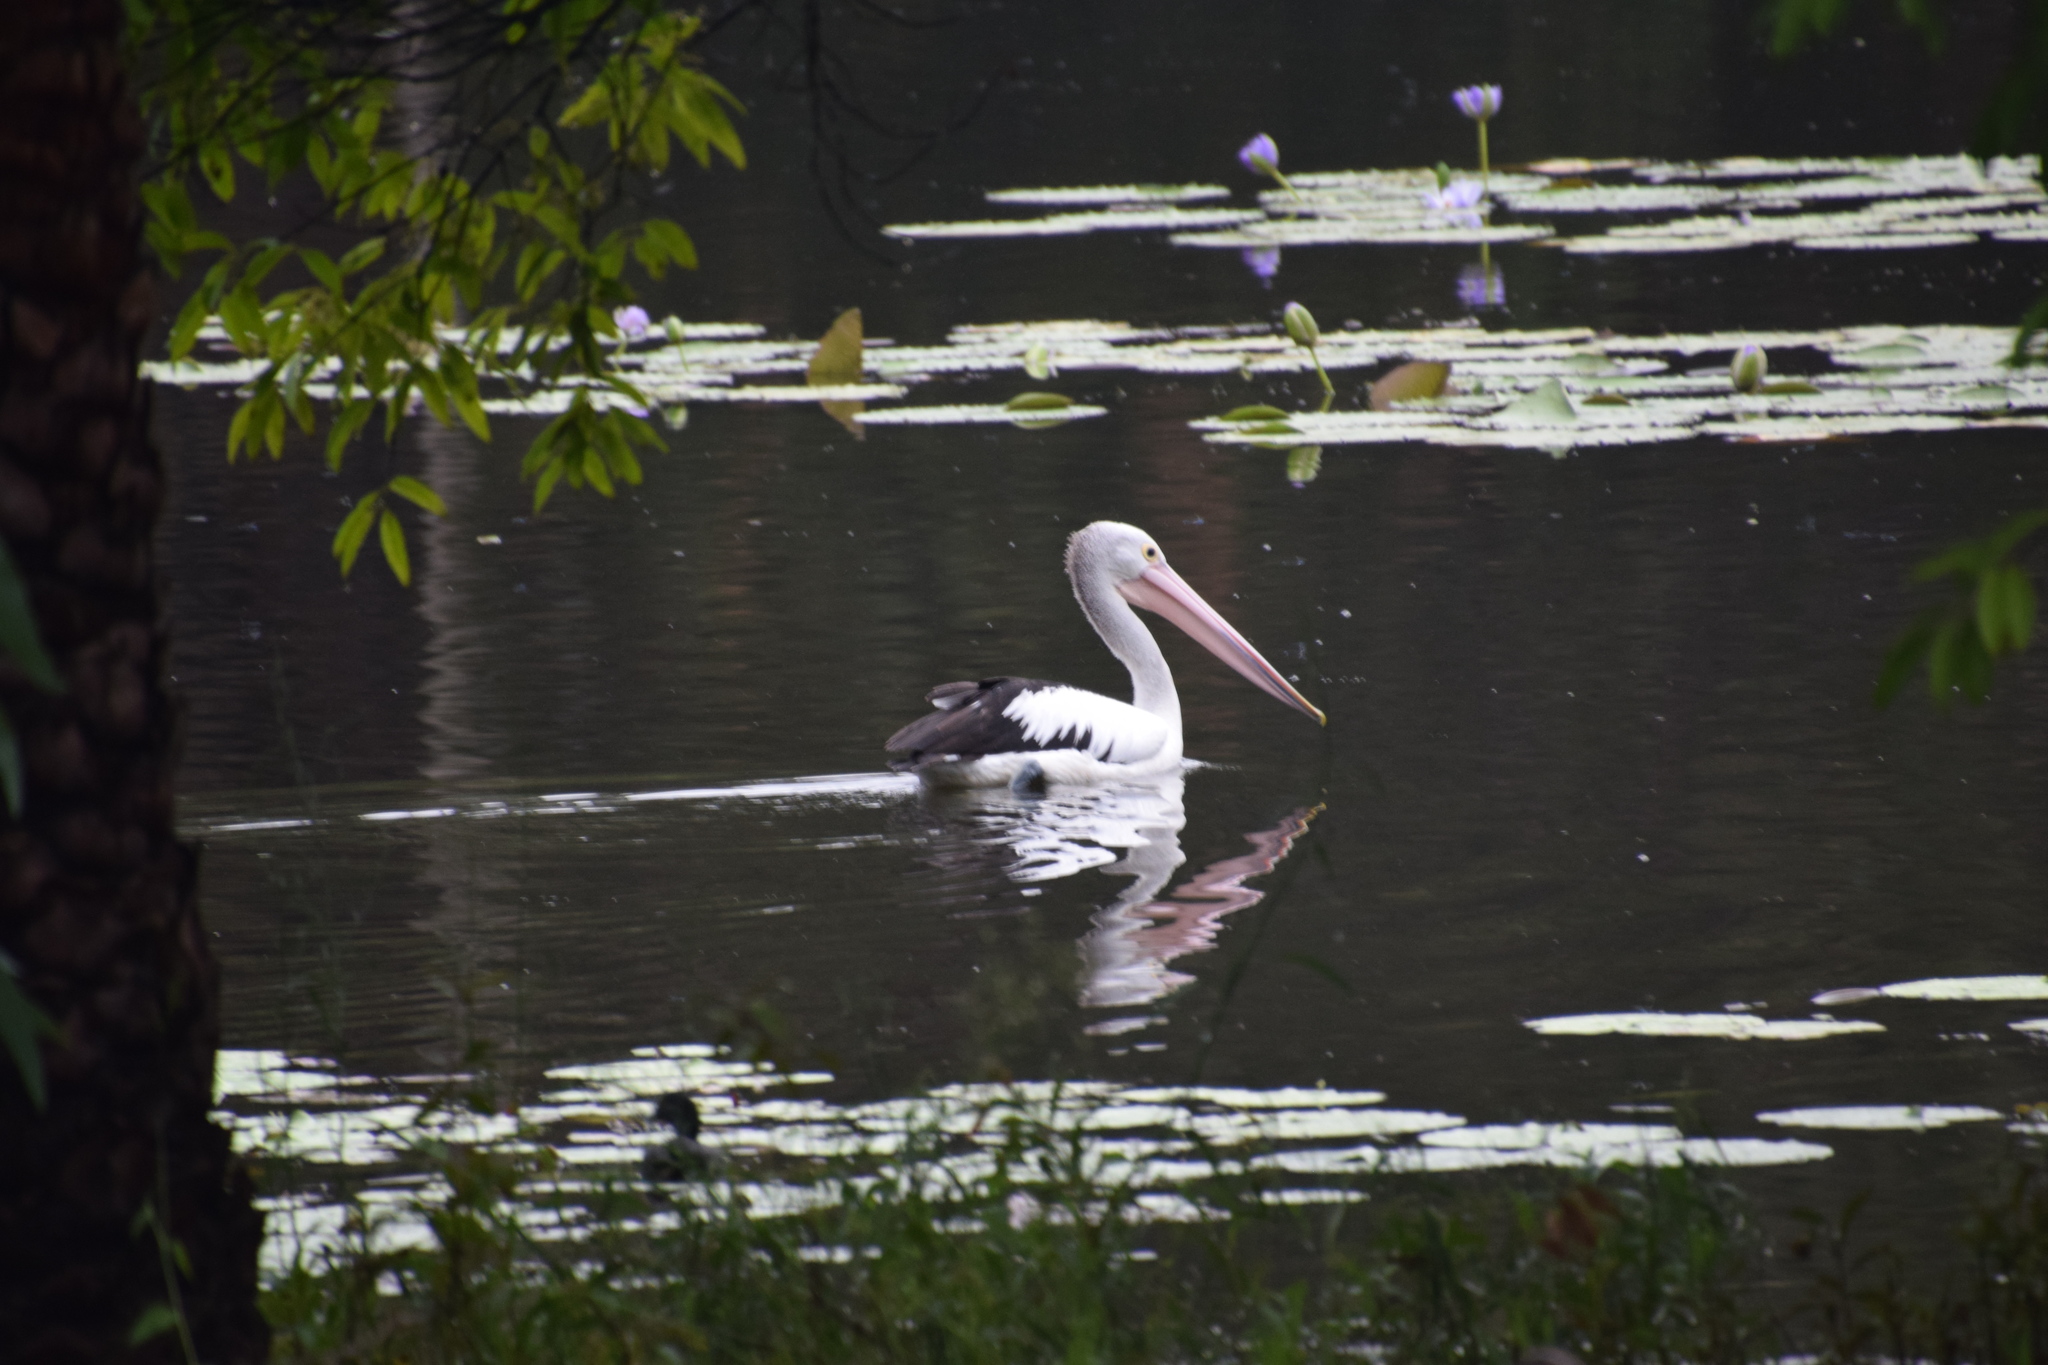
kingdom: Animalia
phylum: Chordata
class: Aves
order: Pelecaniformes
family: Pelecanidae
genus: Pelecanus
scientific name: Pelecanus conspicillatus
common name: Australian pelican
